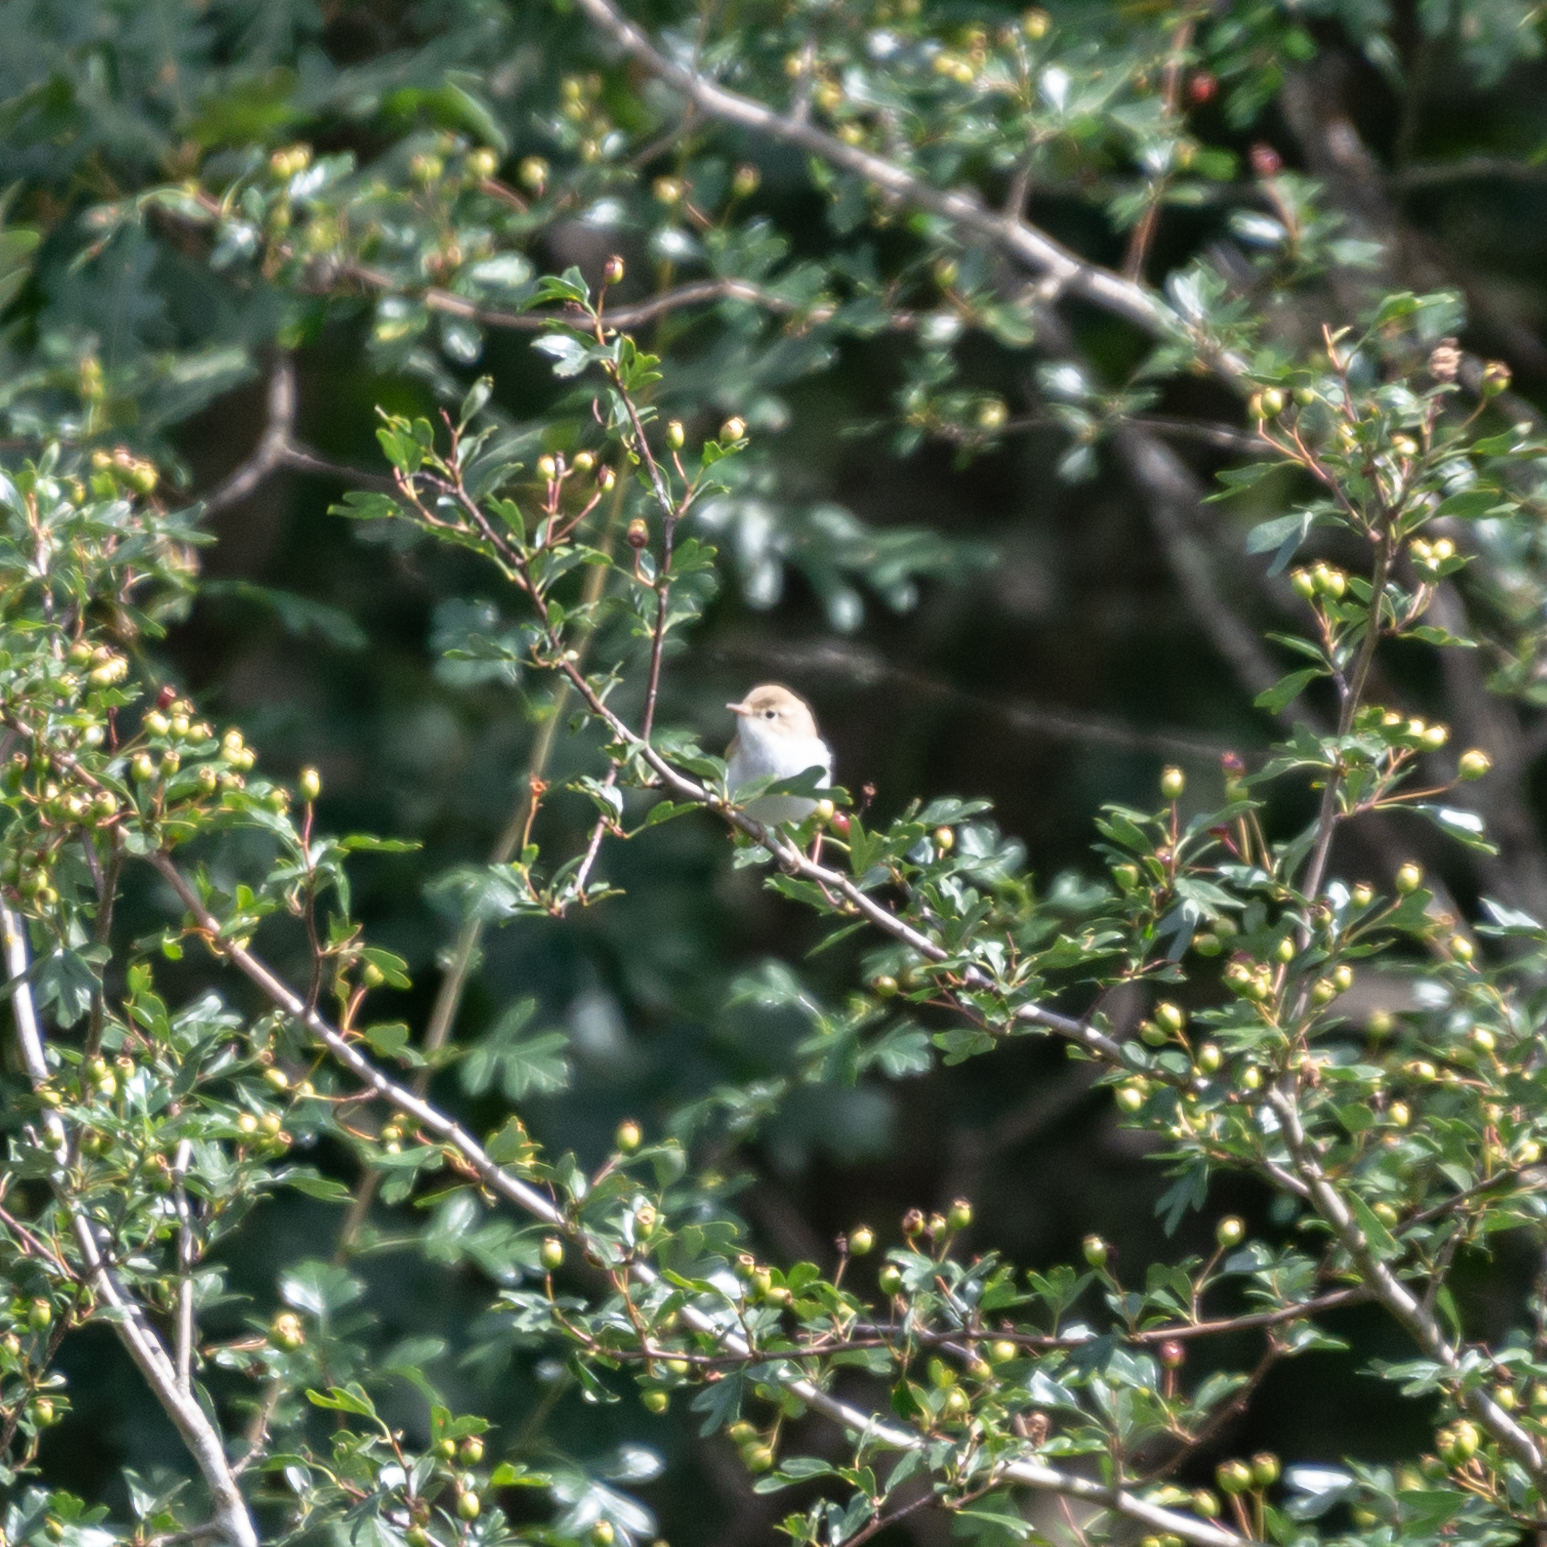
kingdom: Animalia
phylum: Chordata
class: Aves
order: Passeriformes
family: Phylloscopidae
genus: Phylloscopus
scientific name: Phylloscopus bonelli
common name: Western bonelli's warbler
